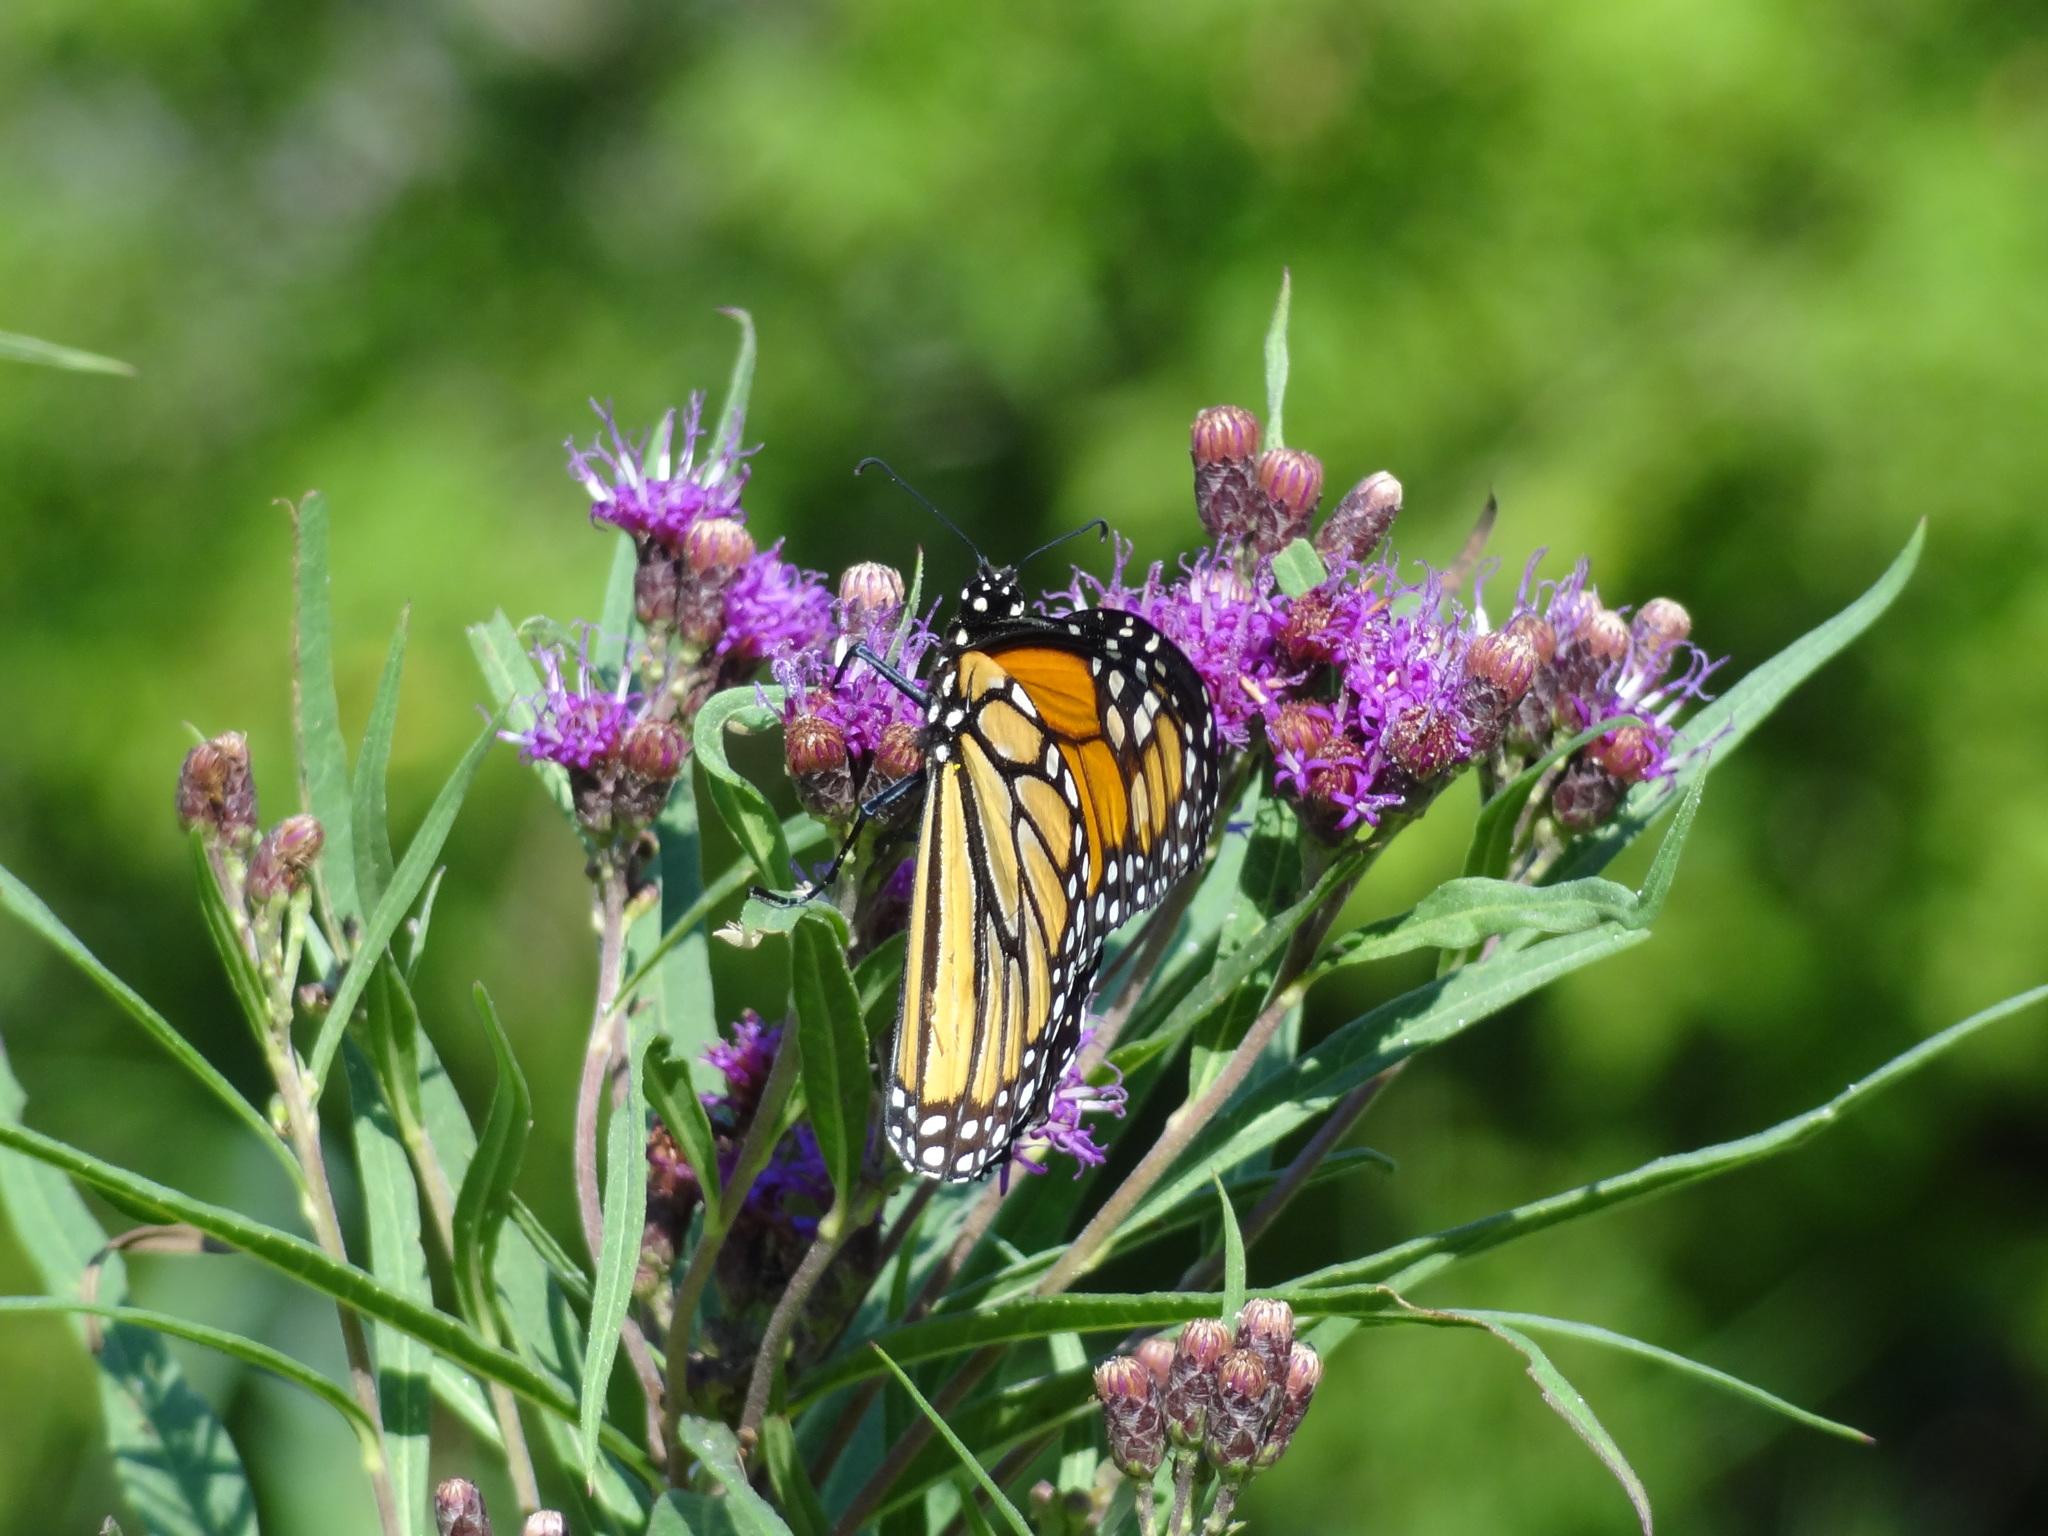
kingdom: Animalia
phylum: Arthropoda
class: Insecta
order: Lepidoptera
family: Nymphalidae
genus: Danaus
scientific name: Danaus plexippus
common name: Monarch
